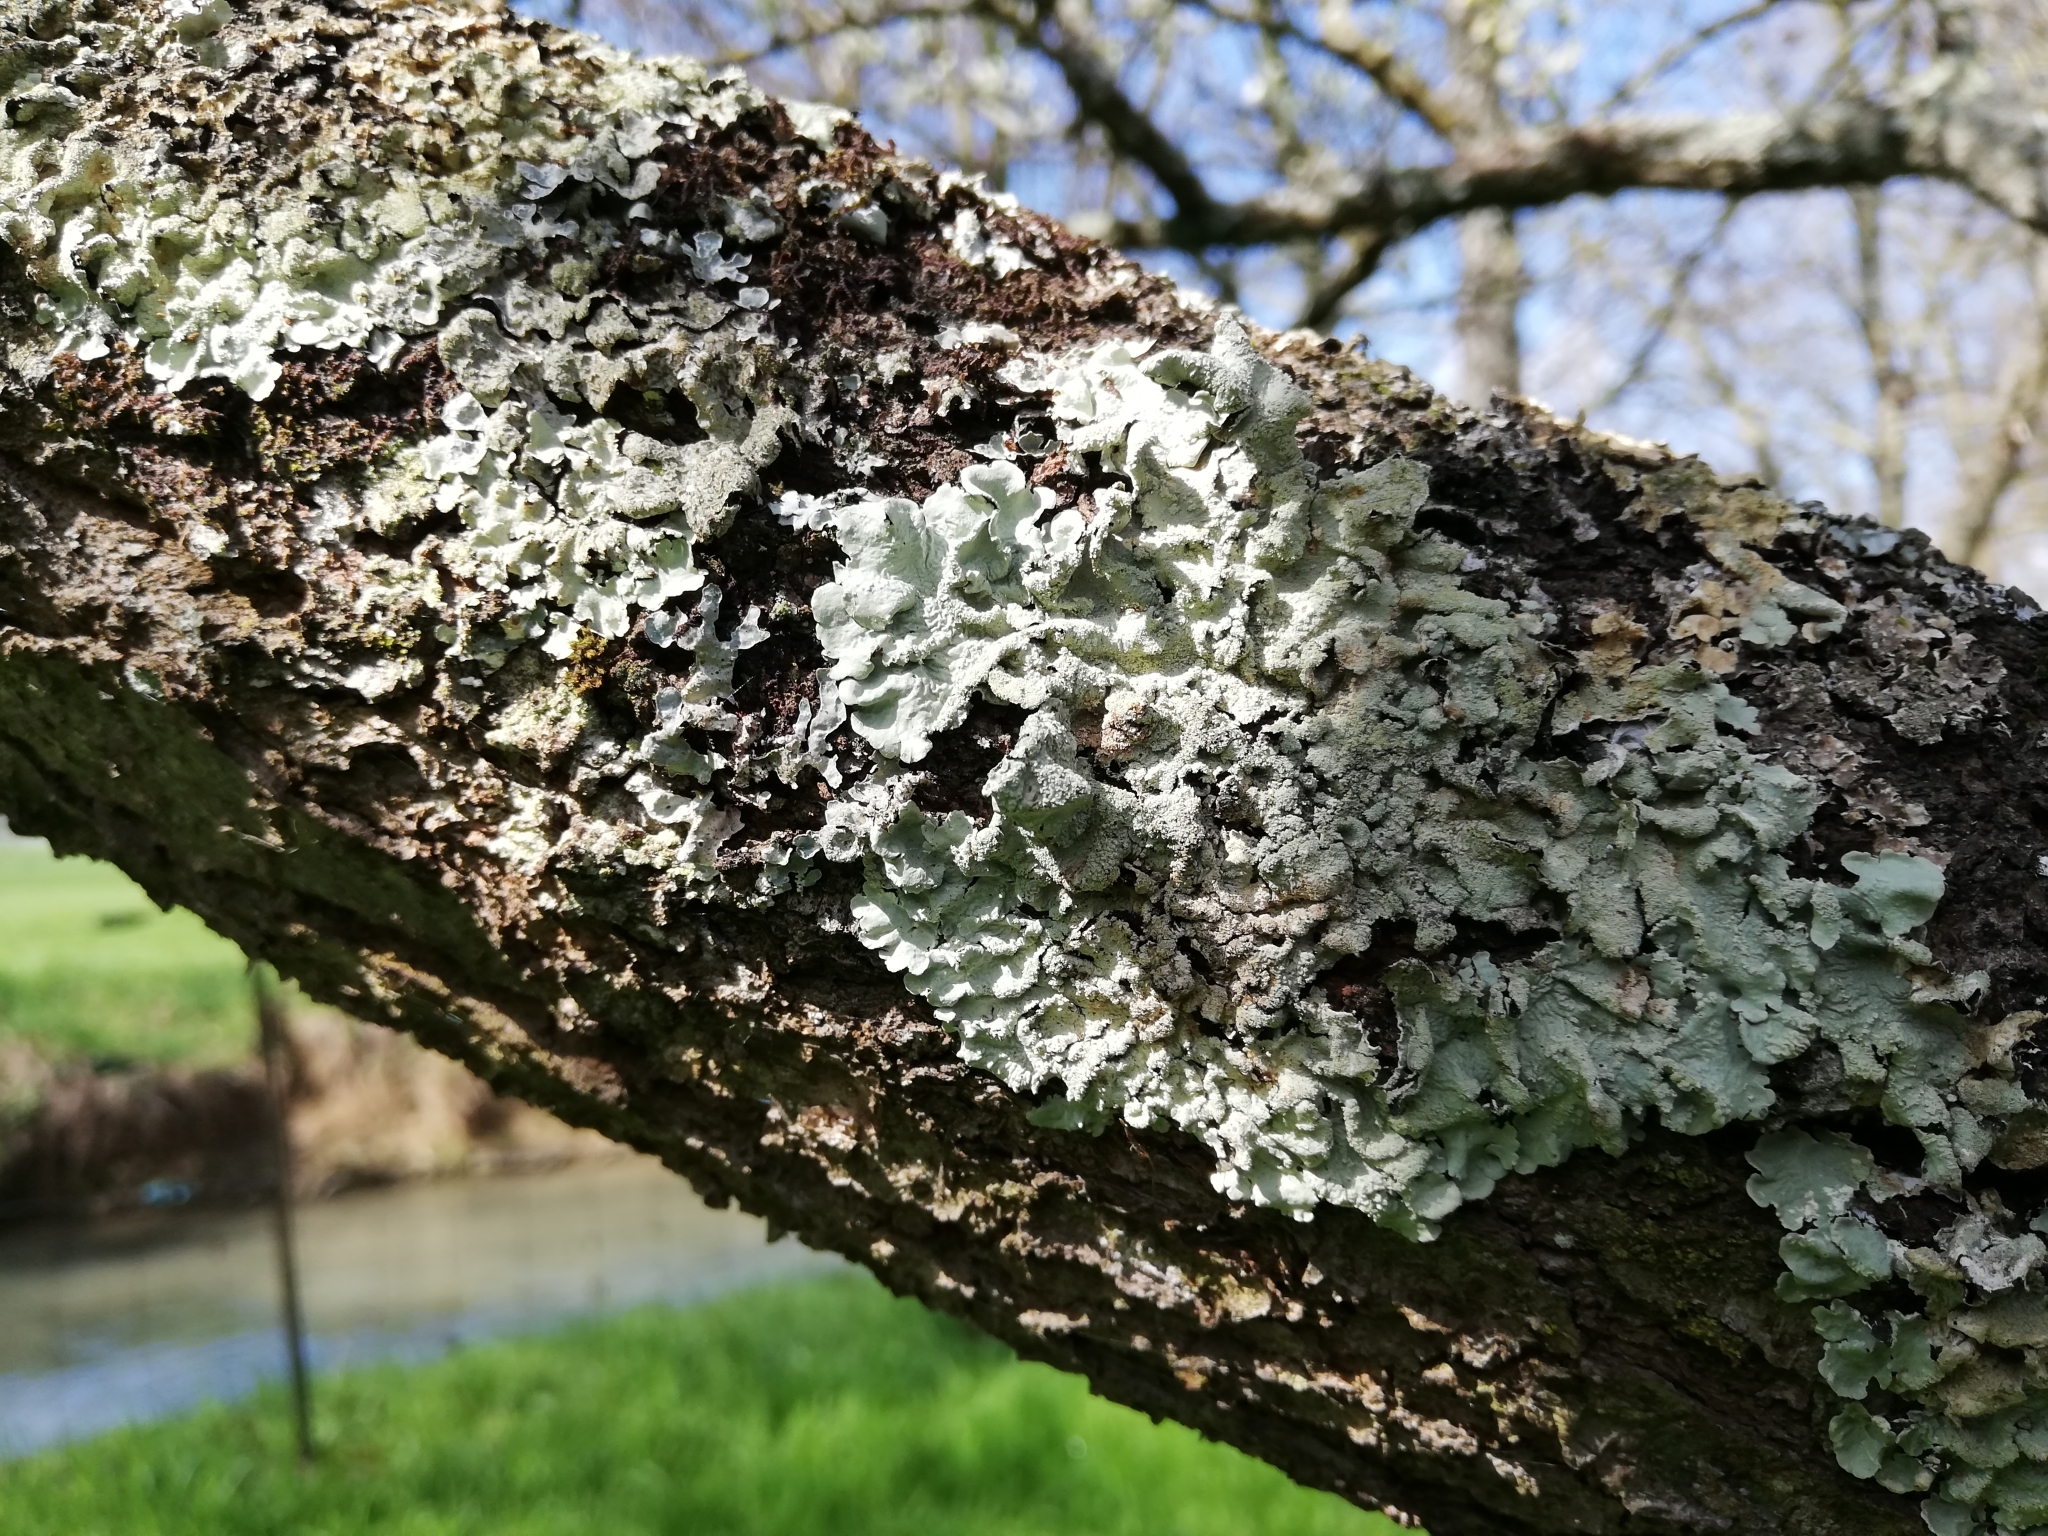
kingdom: Fungi
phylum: Ascomycota
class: Lecanoromycetes
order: Lecanorales
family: Parmeliaceae
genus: Flavoparmelia
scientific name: Flavoparmelia caperata
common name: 40-mile per hour lichen
